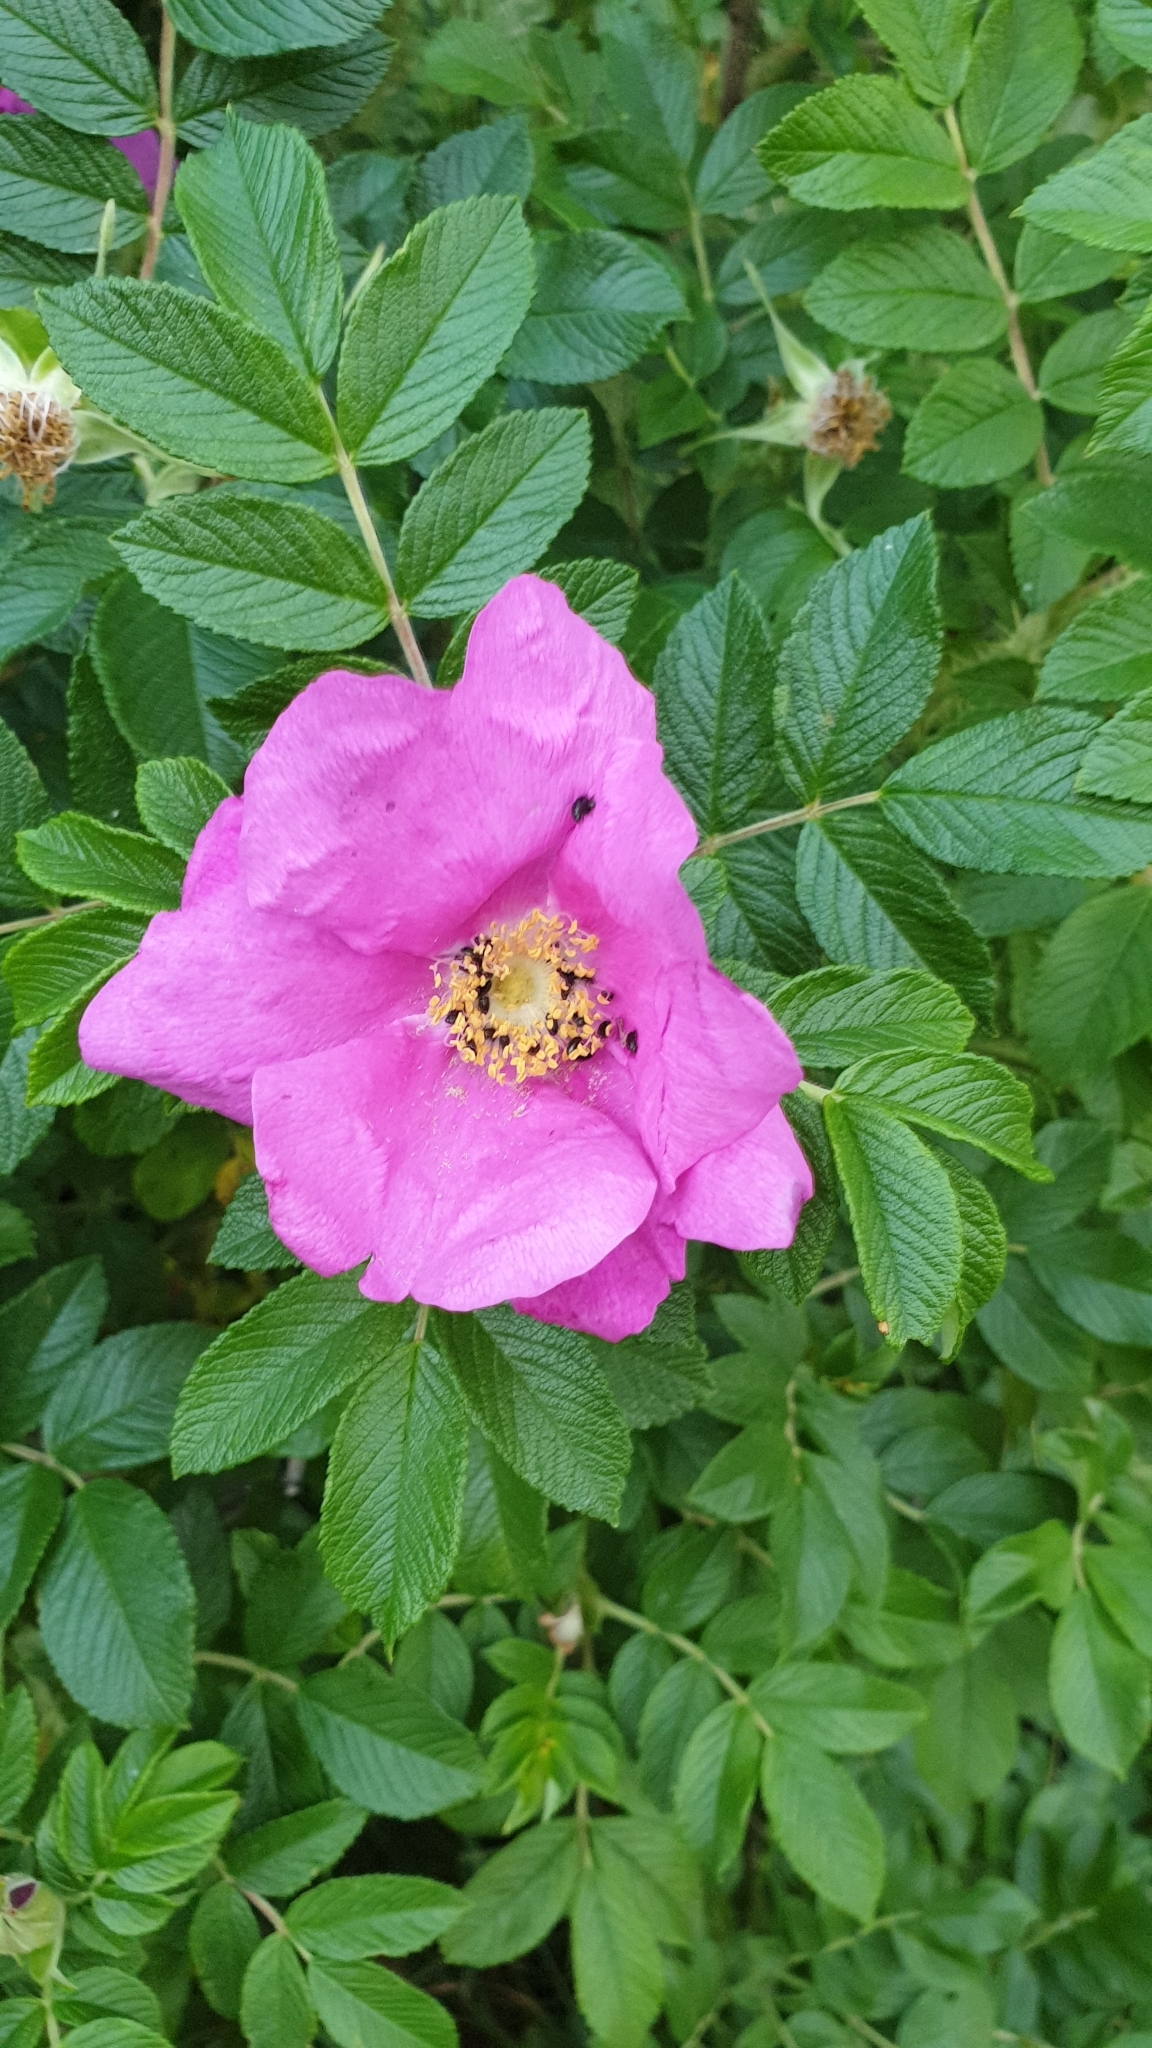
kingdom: Plantae
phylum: Tracheophyta
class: Magnoliopsida
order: Rosales
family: Rosaceae
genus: Rosa
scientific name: Rosa rugosa
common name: Japanese rose
